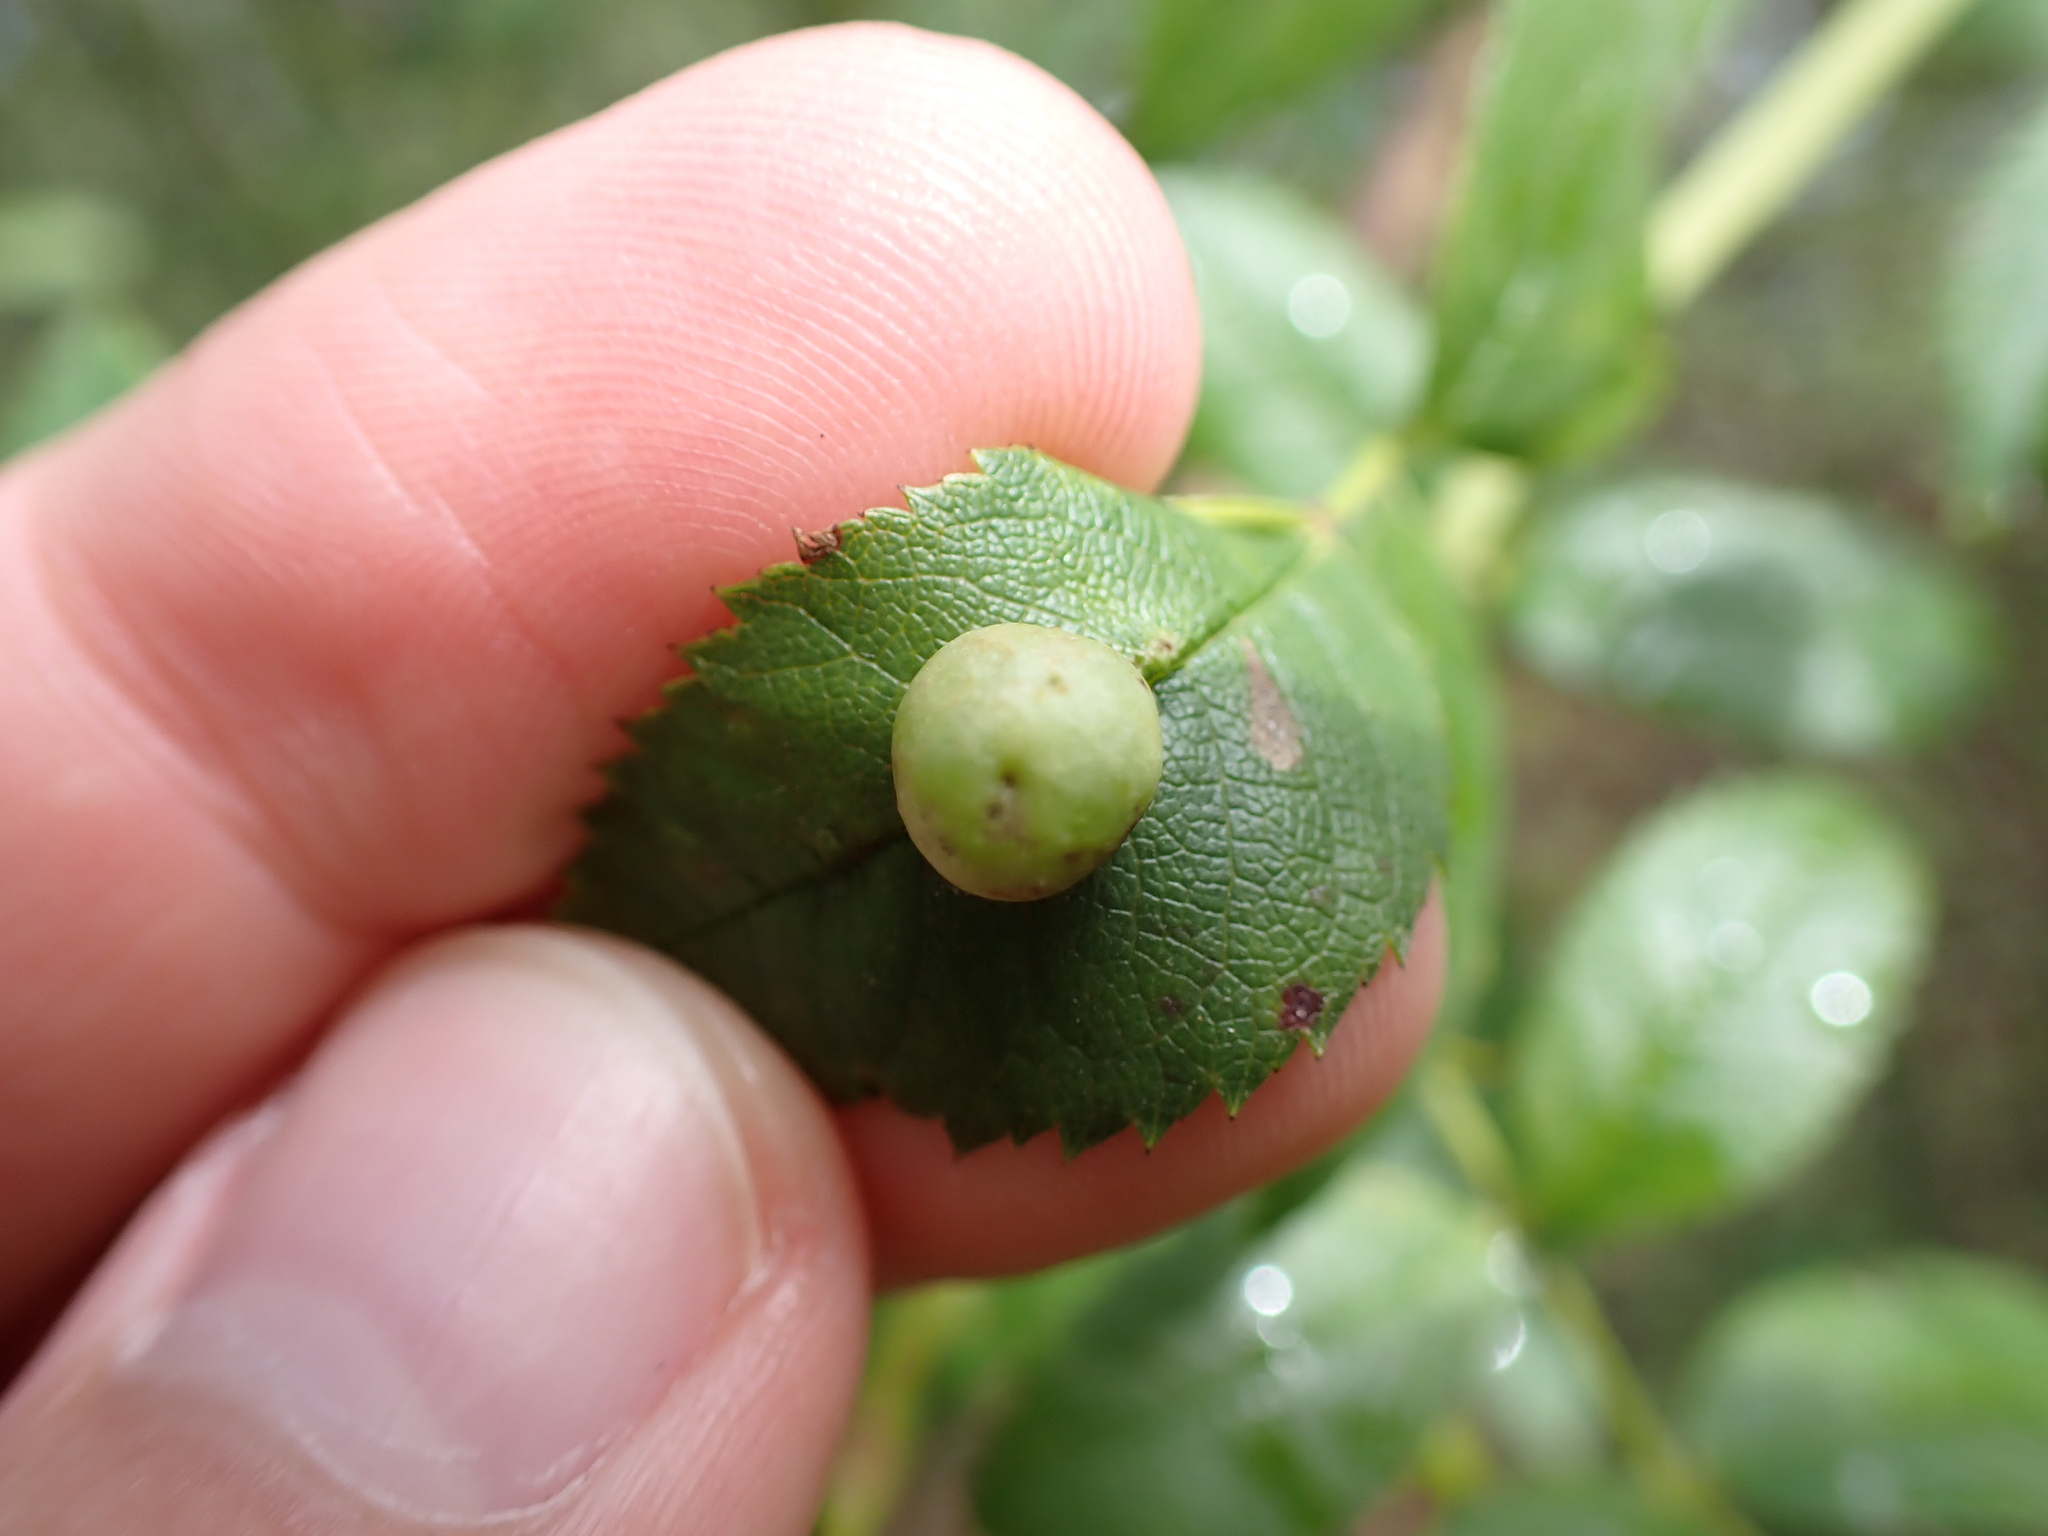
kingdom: Animalia
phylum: Arthropoda
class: Insecta
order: Hymenoptera
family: Cynipidae
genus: Diplolepis
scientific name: Diplolepis
